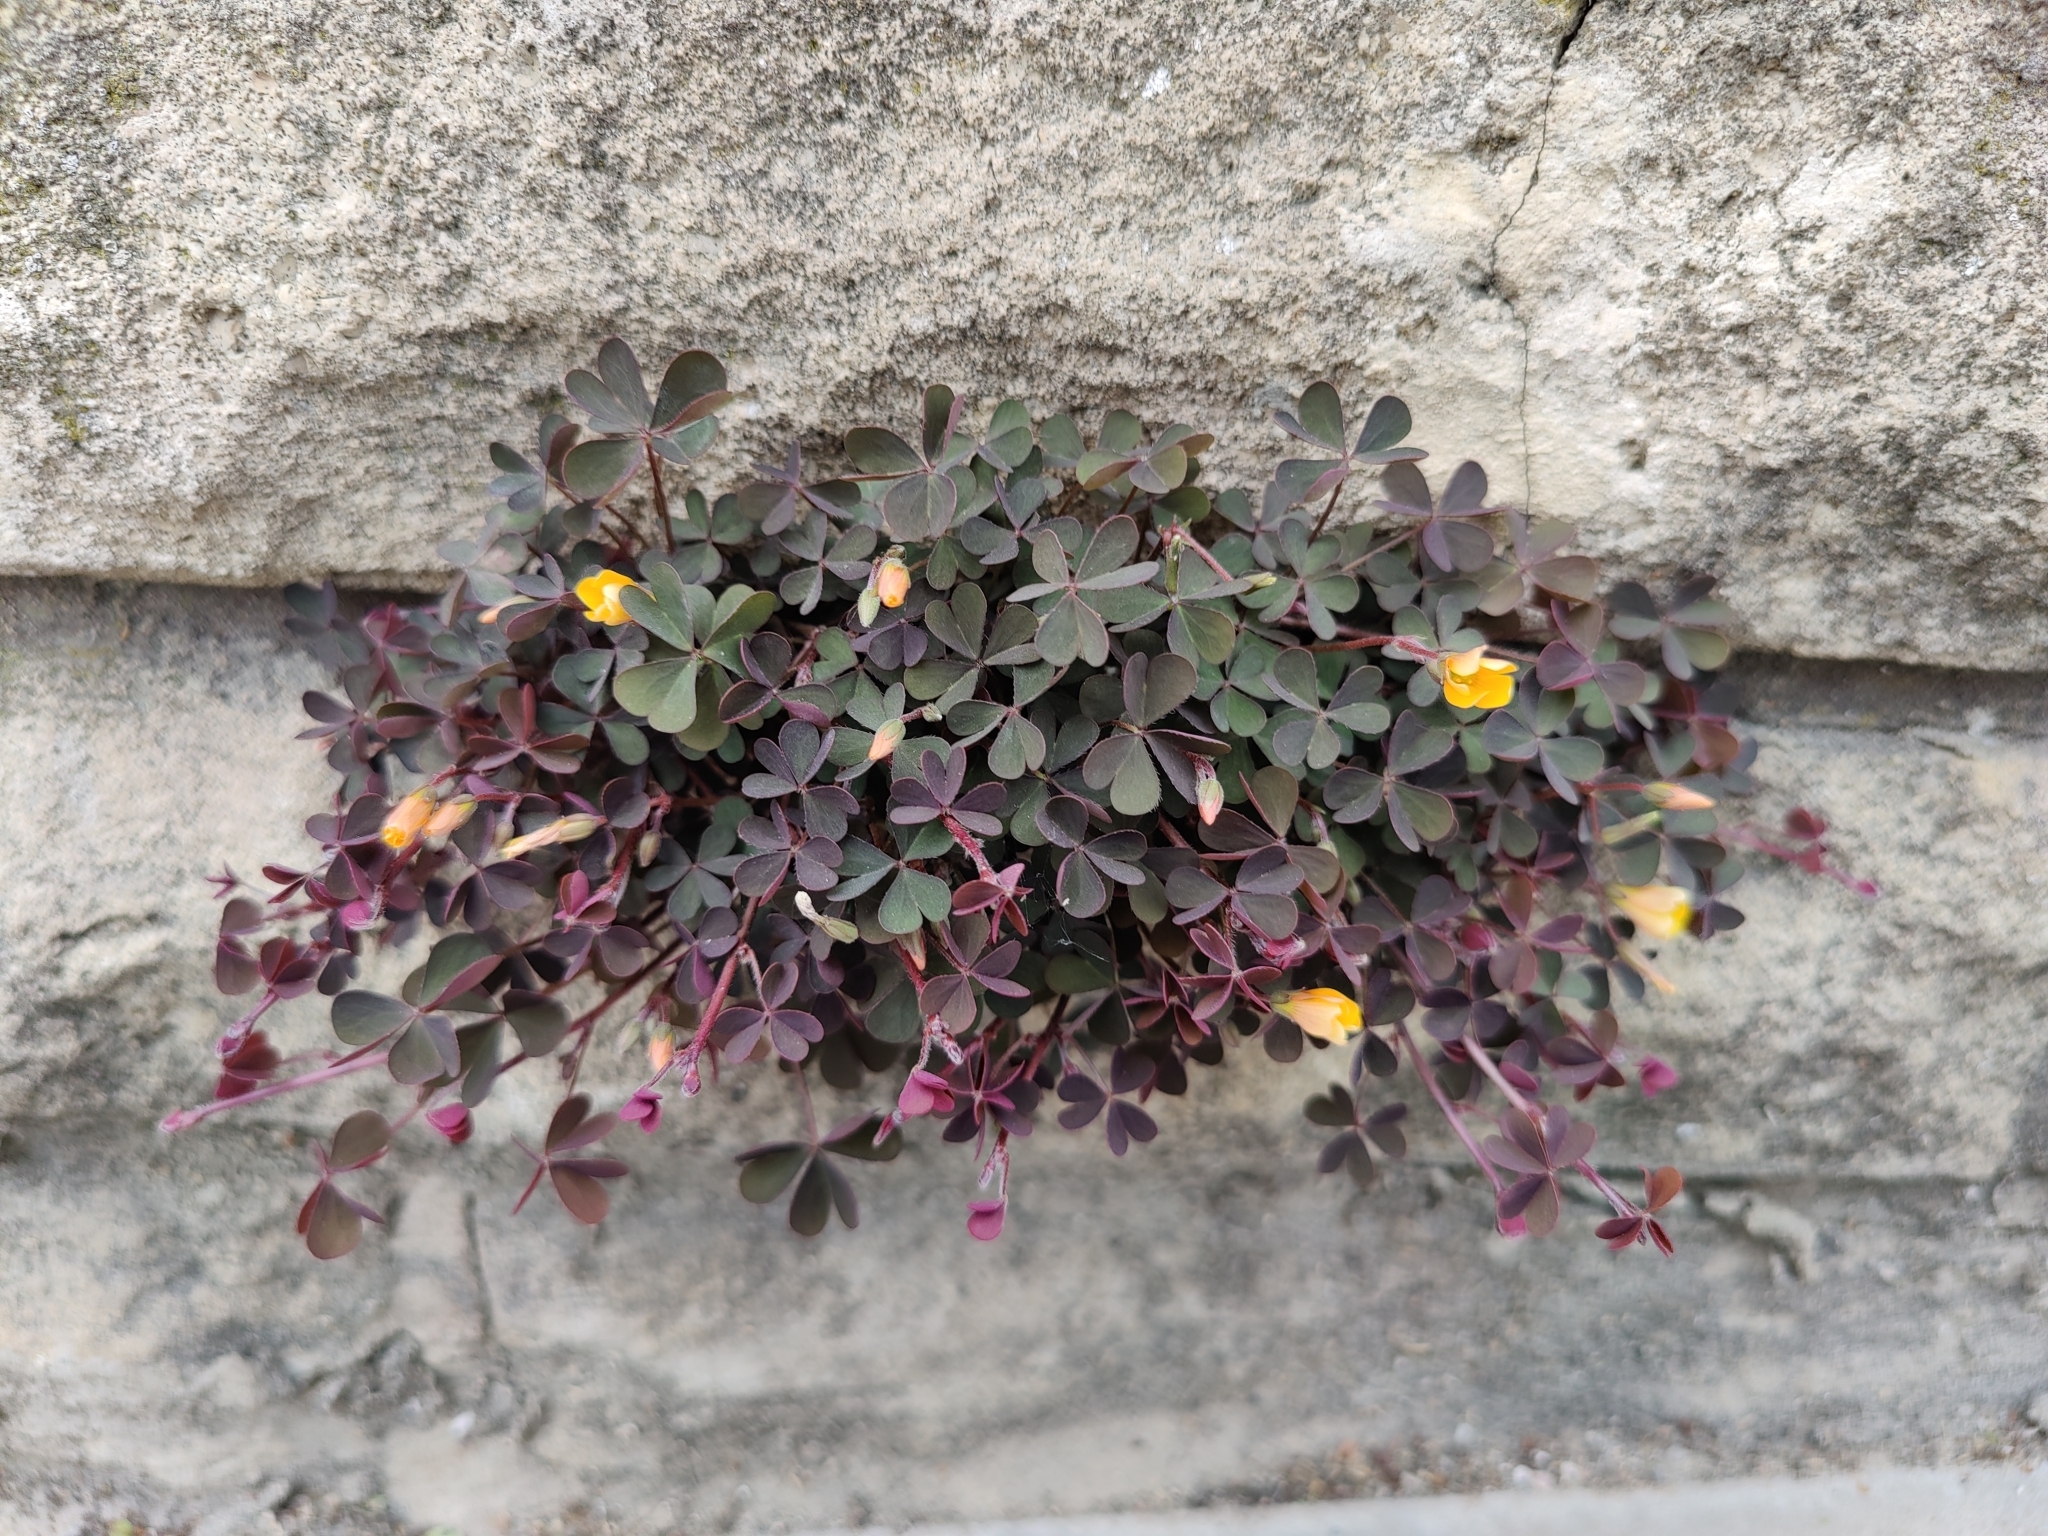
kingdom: Plantae
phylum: Tracheophyta
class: Magnoliopsida
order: Oxalidales
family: Oxalidaceae
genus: Oxalis
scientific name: Oxalis corniculata
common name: Procumbent yellow-sorrel
